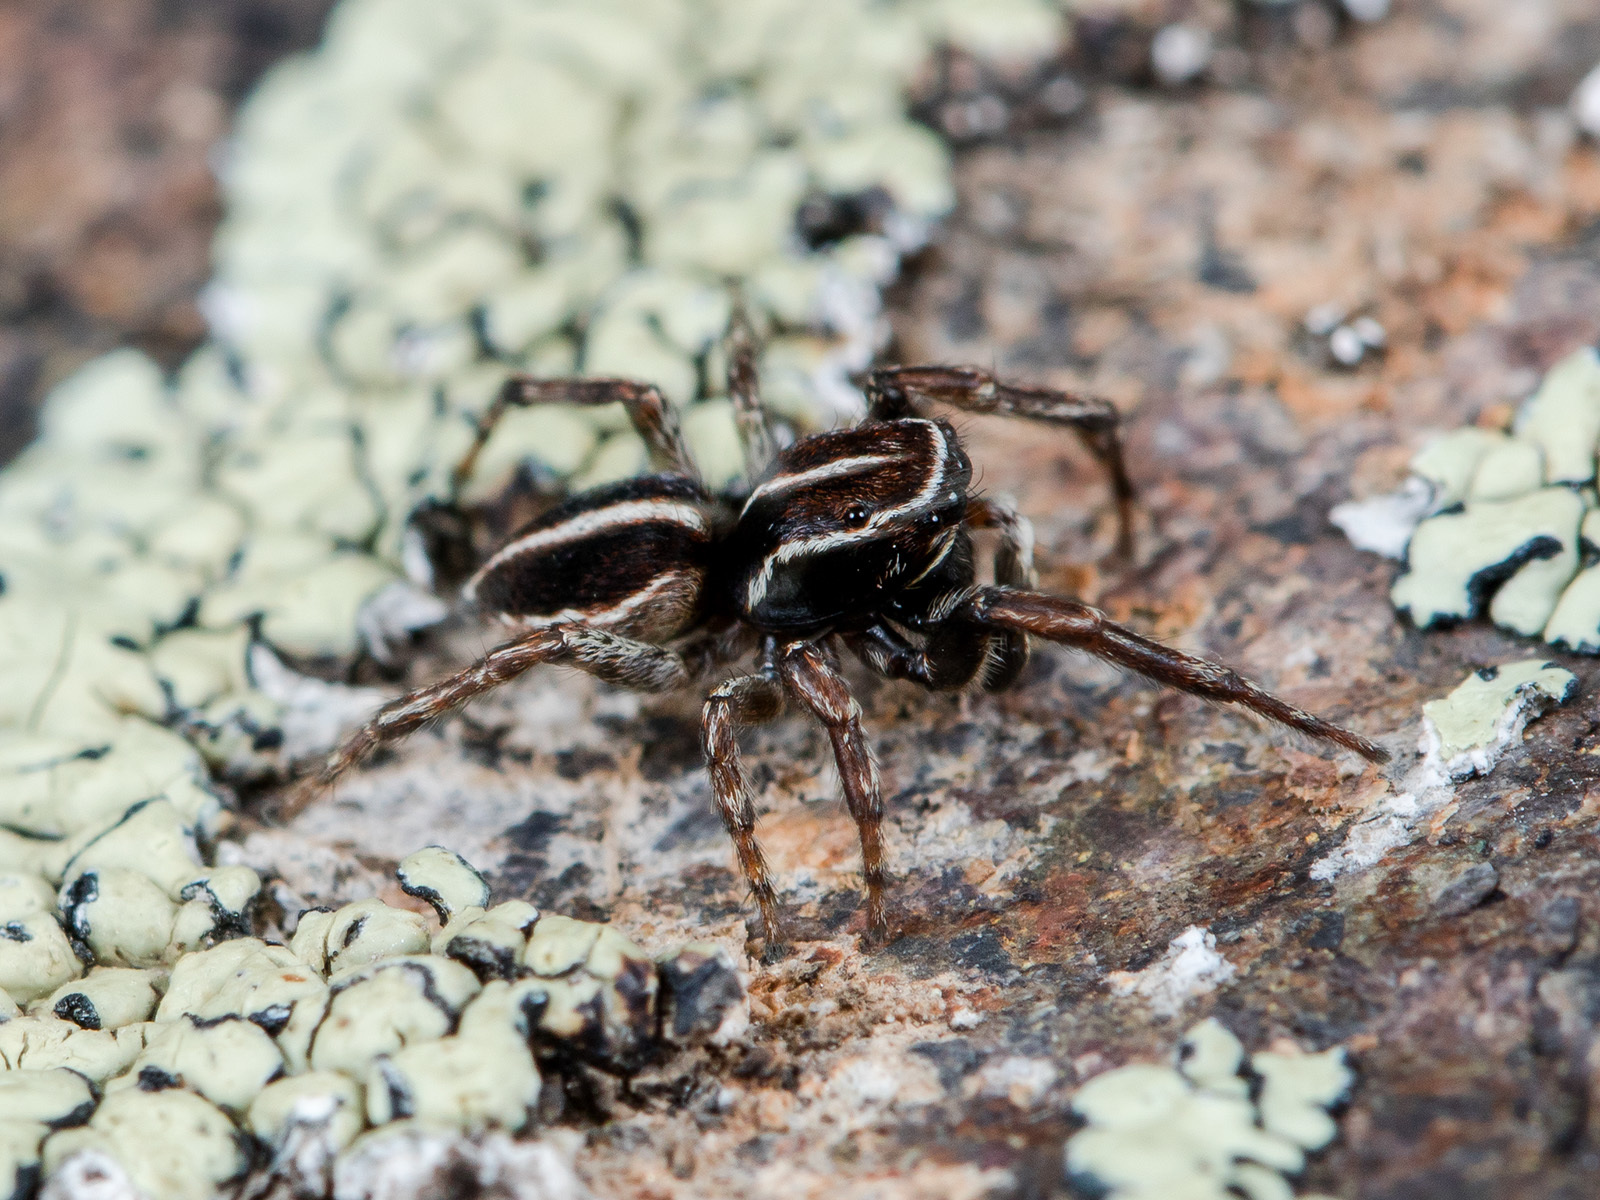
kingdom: Animalia
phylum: Arthropoda
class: Arachnida
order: Araneae
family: Salticidae
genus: Attulus
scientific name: Attulus monstrabilis
